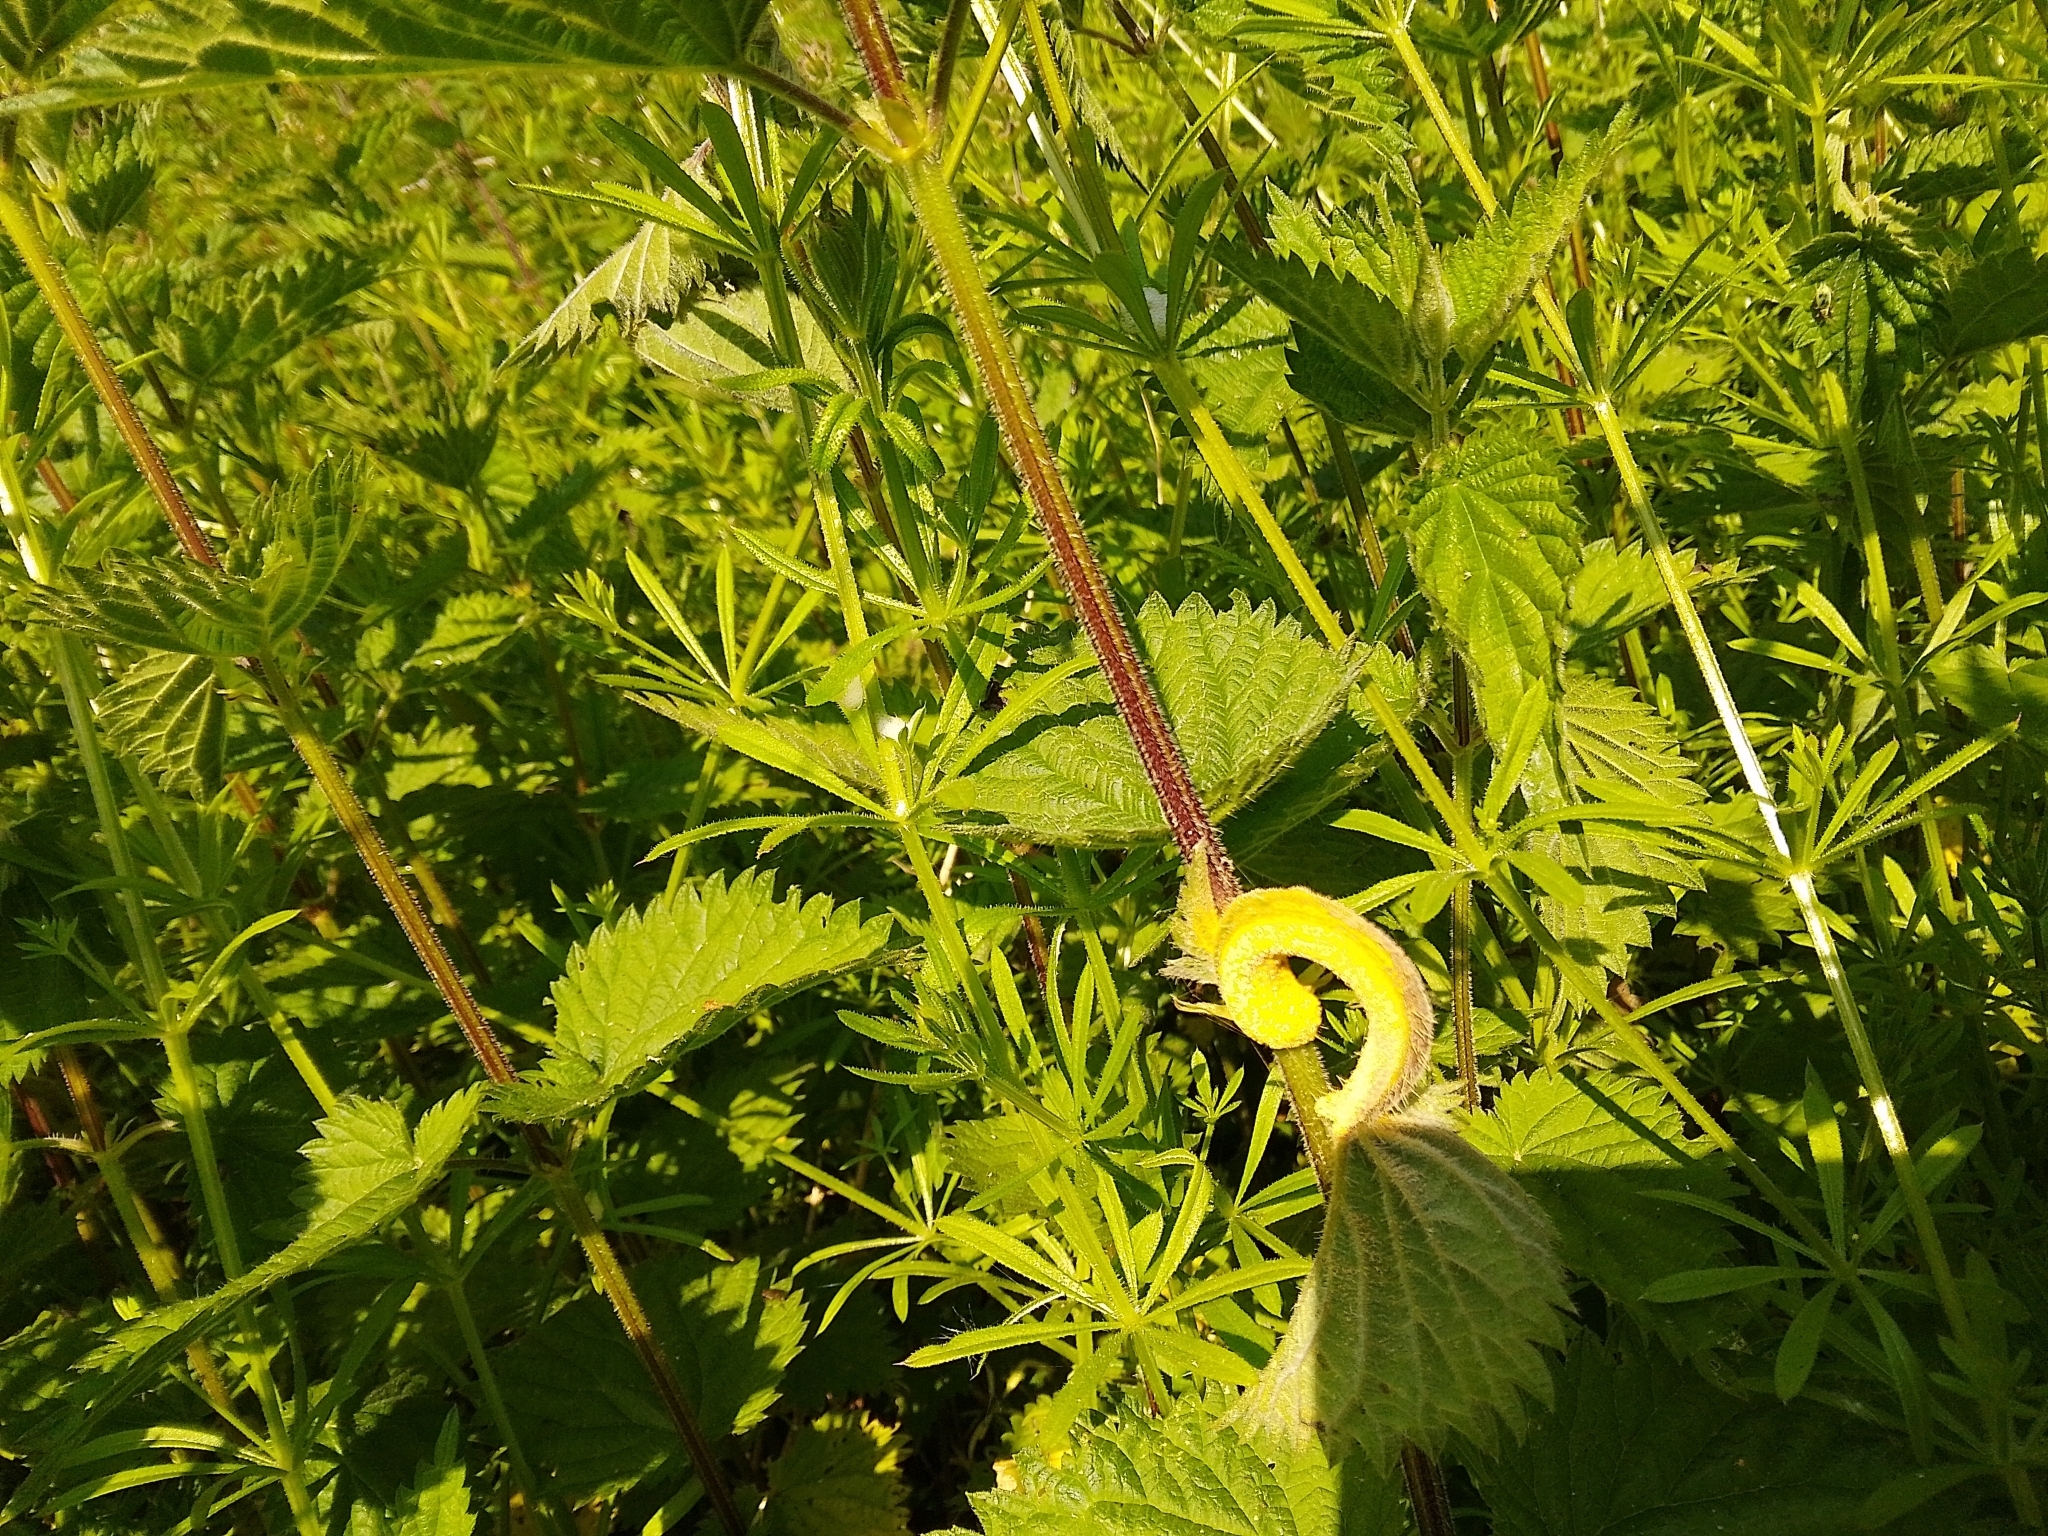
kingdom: Fungi
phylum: Basidiomycota
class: Pucciniomycetes
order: Pucciniales
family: Pucciniaceae
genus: Puccinia
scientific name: Puccinia urticata
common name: Nettle clustercup rust fungus
